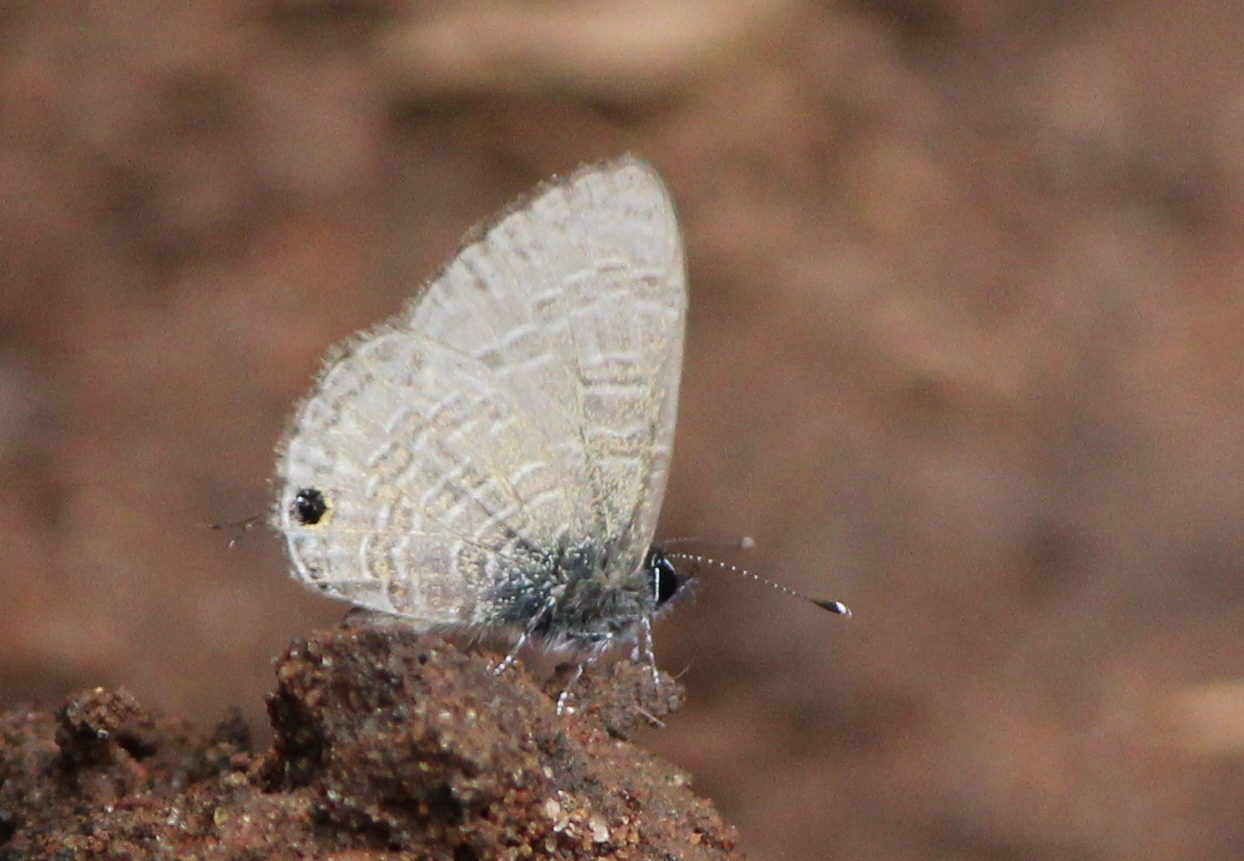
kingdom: Animalia
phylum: Arthropoda
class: Insecta
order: Lepidoptera
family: Lycaenidae
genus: Prosotas
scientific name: Prosotas nora
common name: Common line blue
